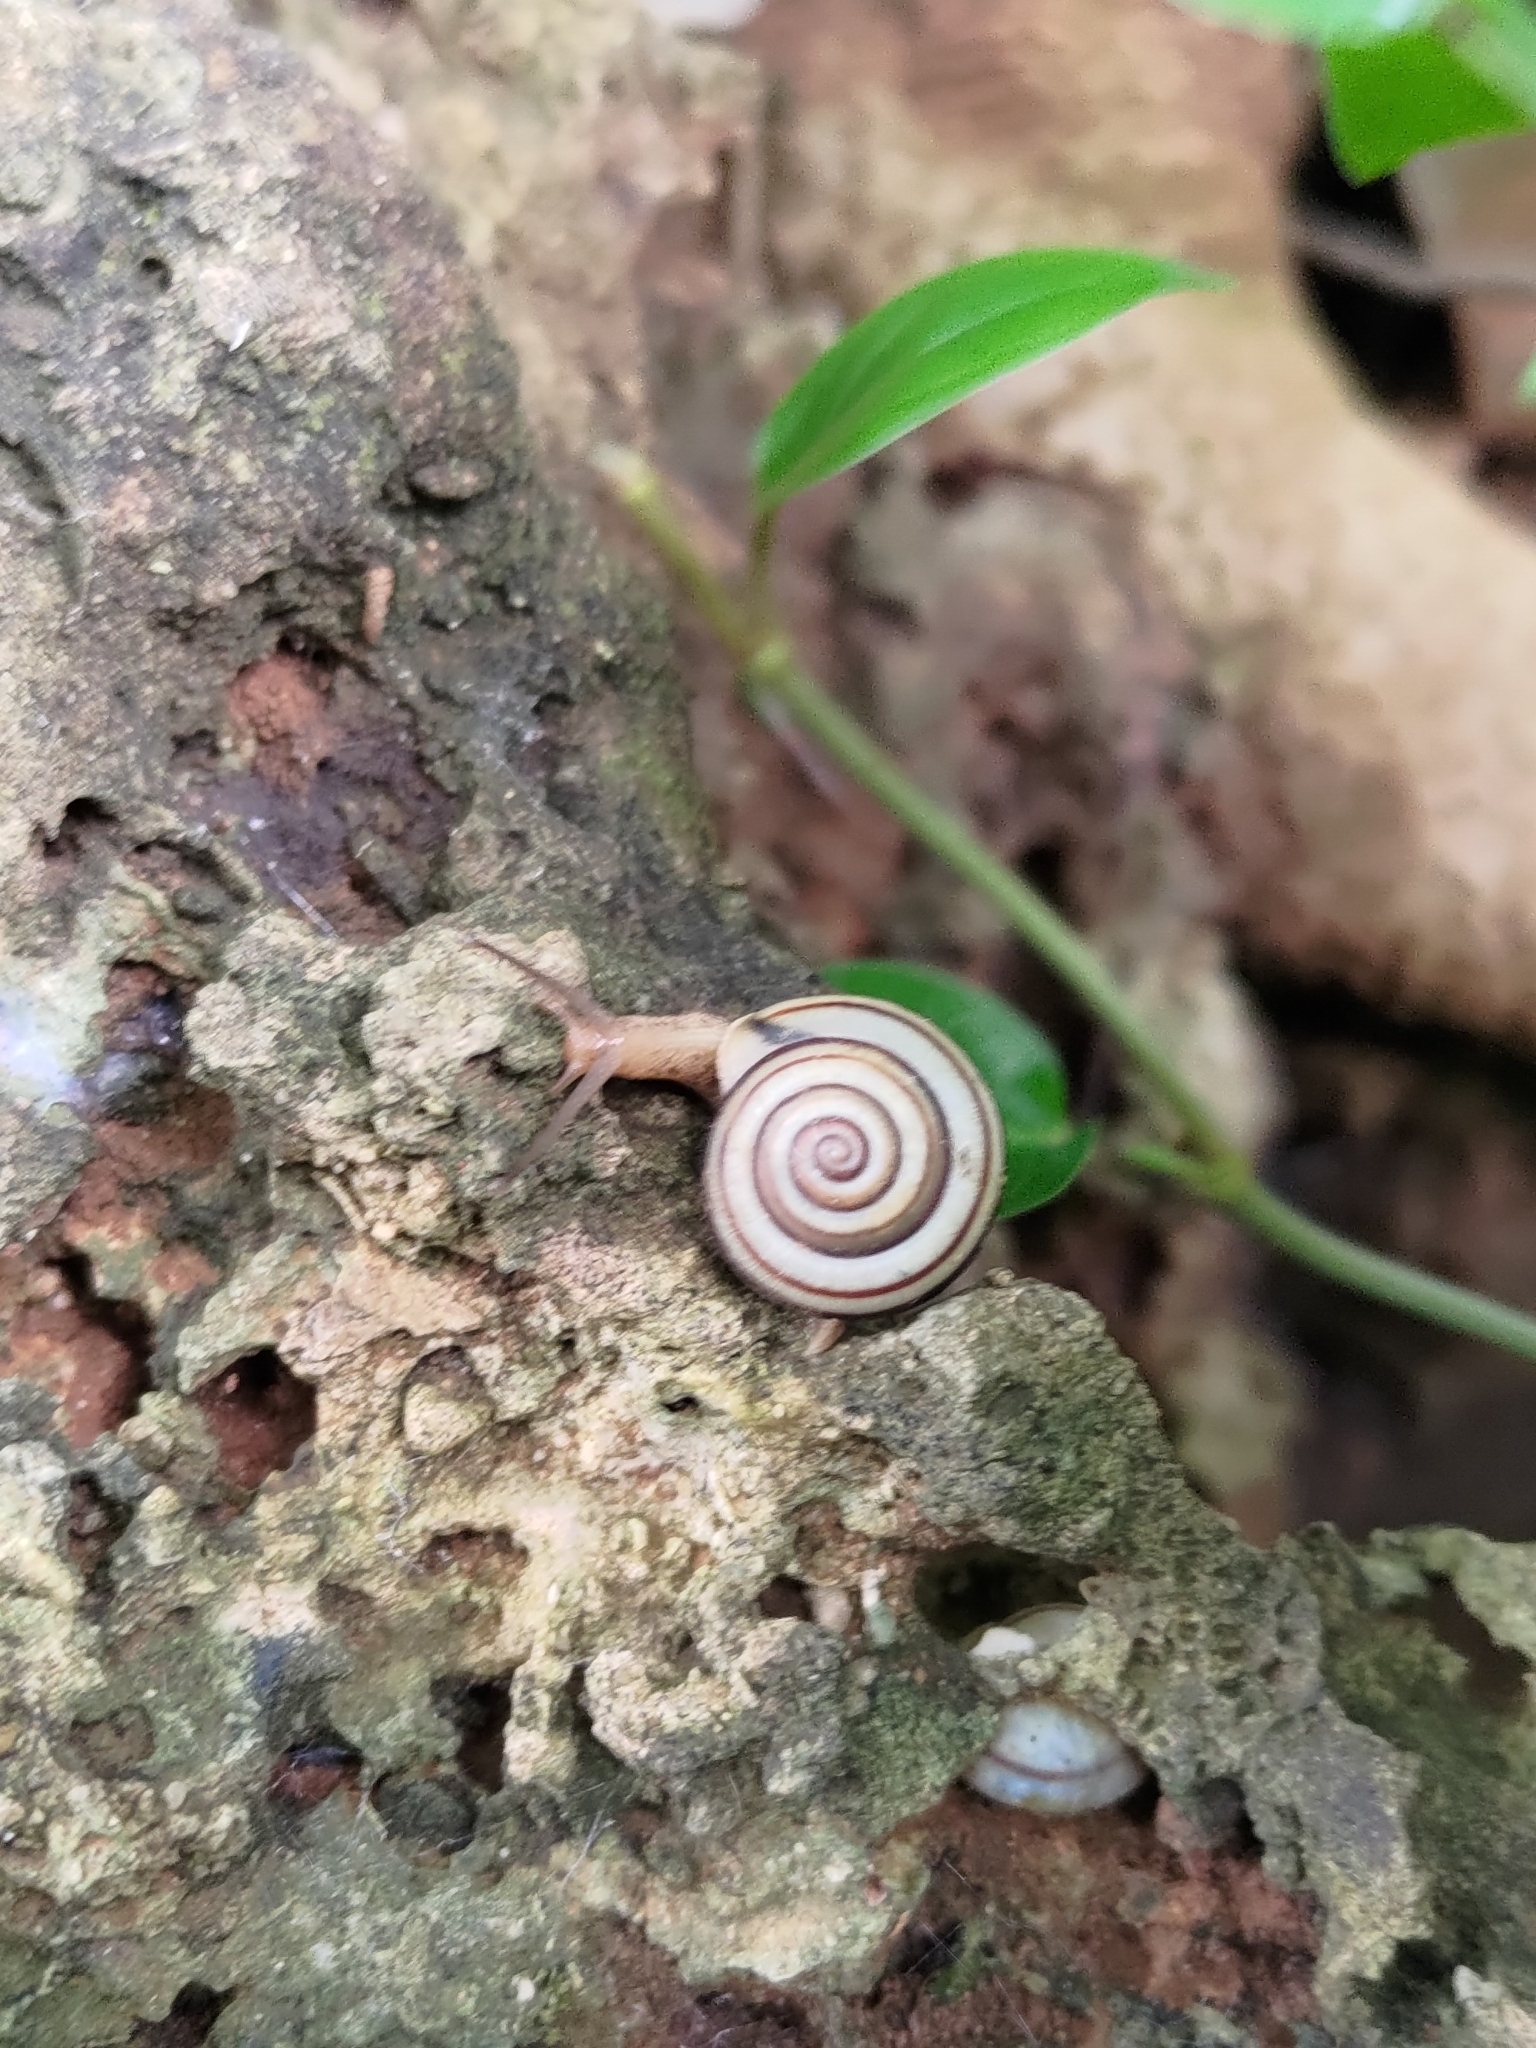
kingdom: Animalia
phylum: Mollusca
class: Gastropoda
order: Stylommatophora
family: Camaenidae
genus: Pancala
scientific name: Pancala batanica
